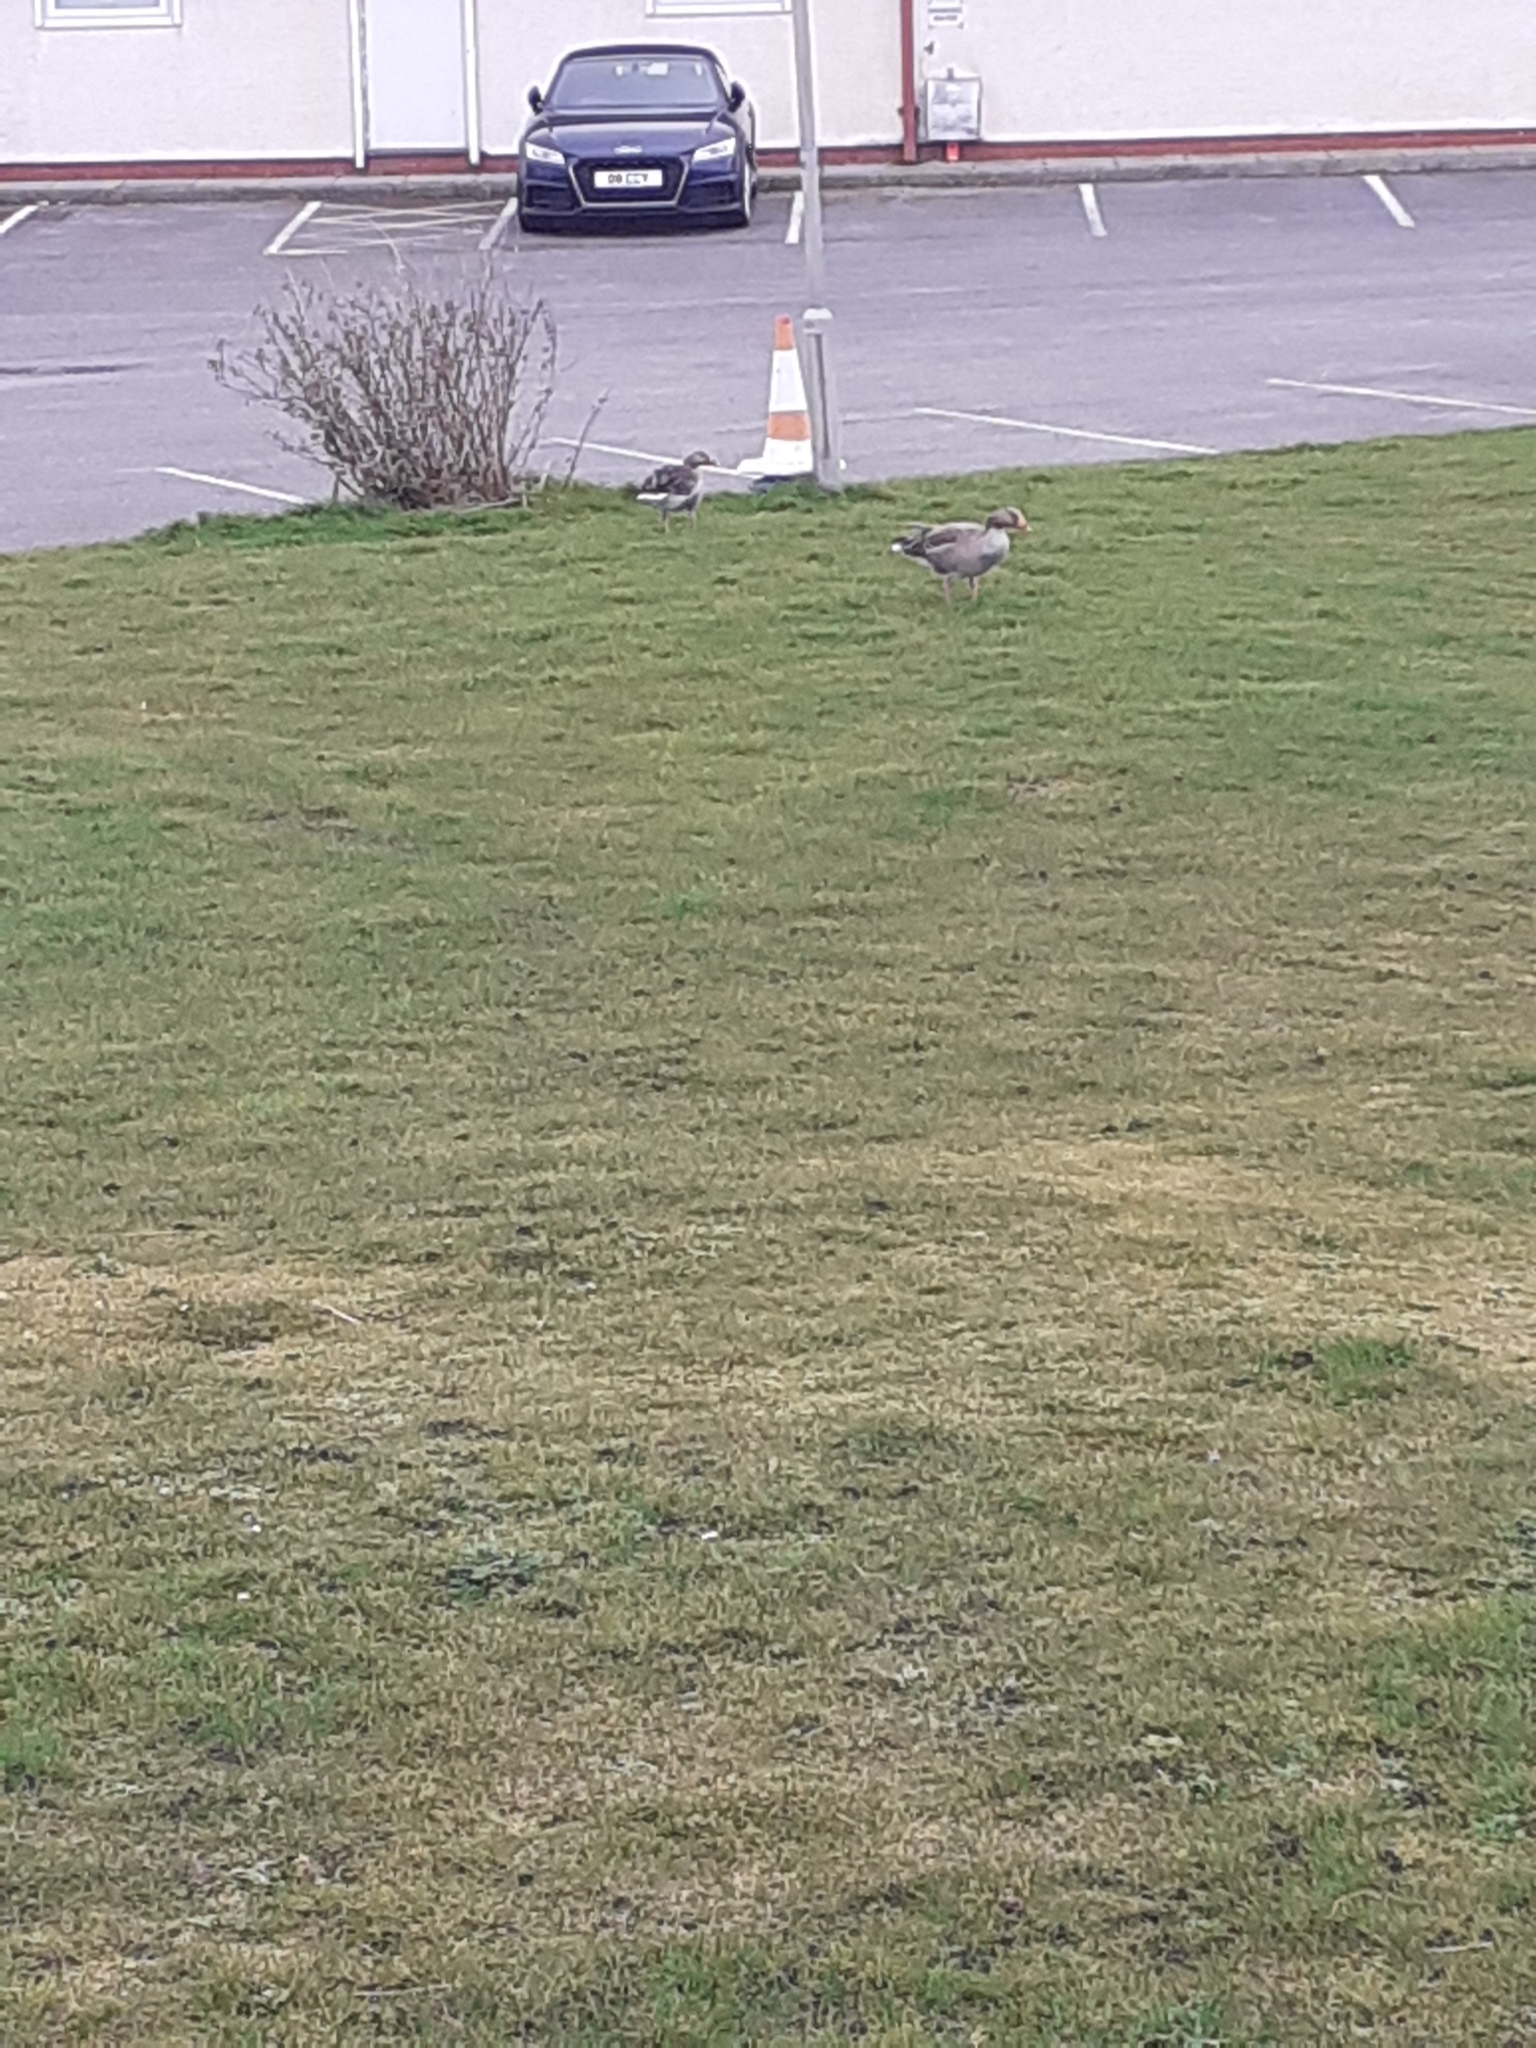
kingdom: Animalia
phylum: Chordata
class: Aves
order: Anseriformes
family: Anatidae
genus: Anser
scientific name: Anser anser
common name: Greylag goose
